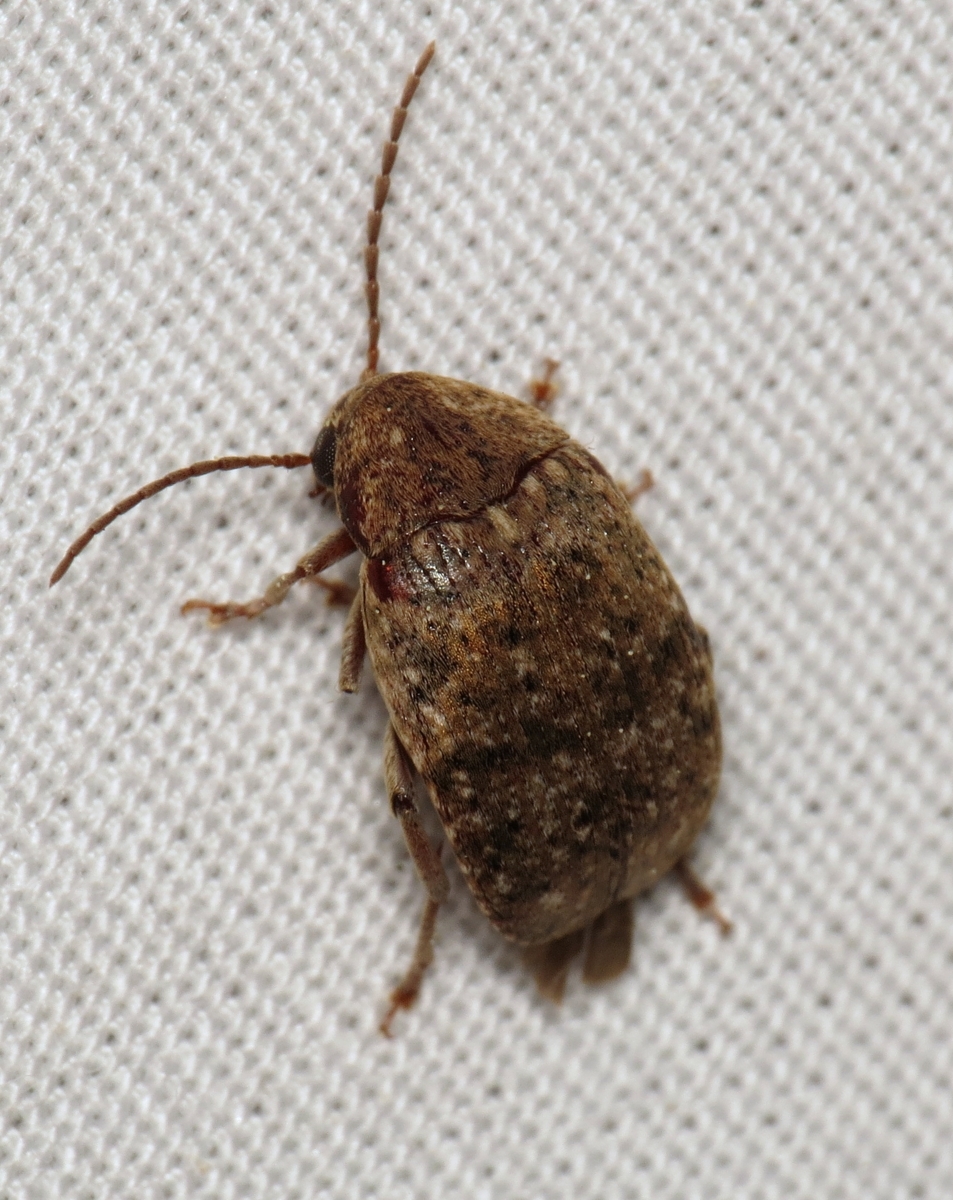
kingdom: Animalia
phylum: Arthropoda
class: Insecta
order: Coleoptera
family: Chrysomelidae
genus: Amblycerus
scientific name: Amblycerus robiniae
